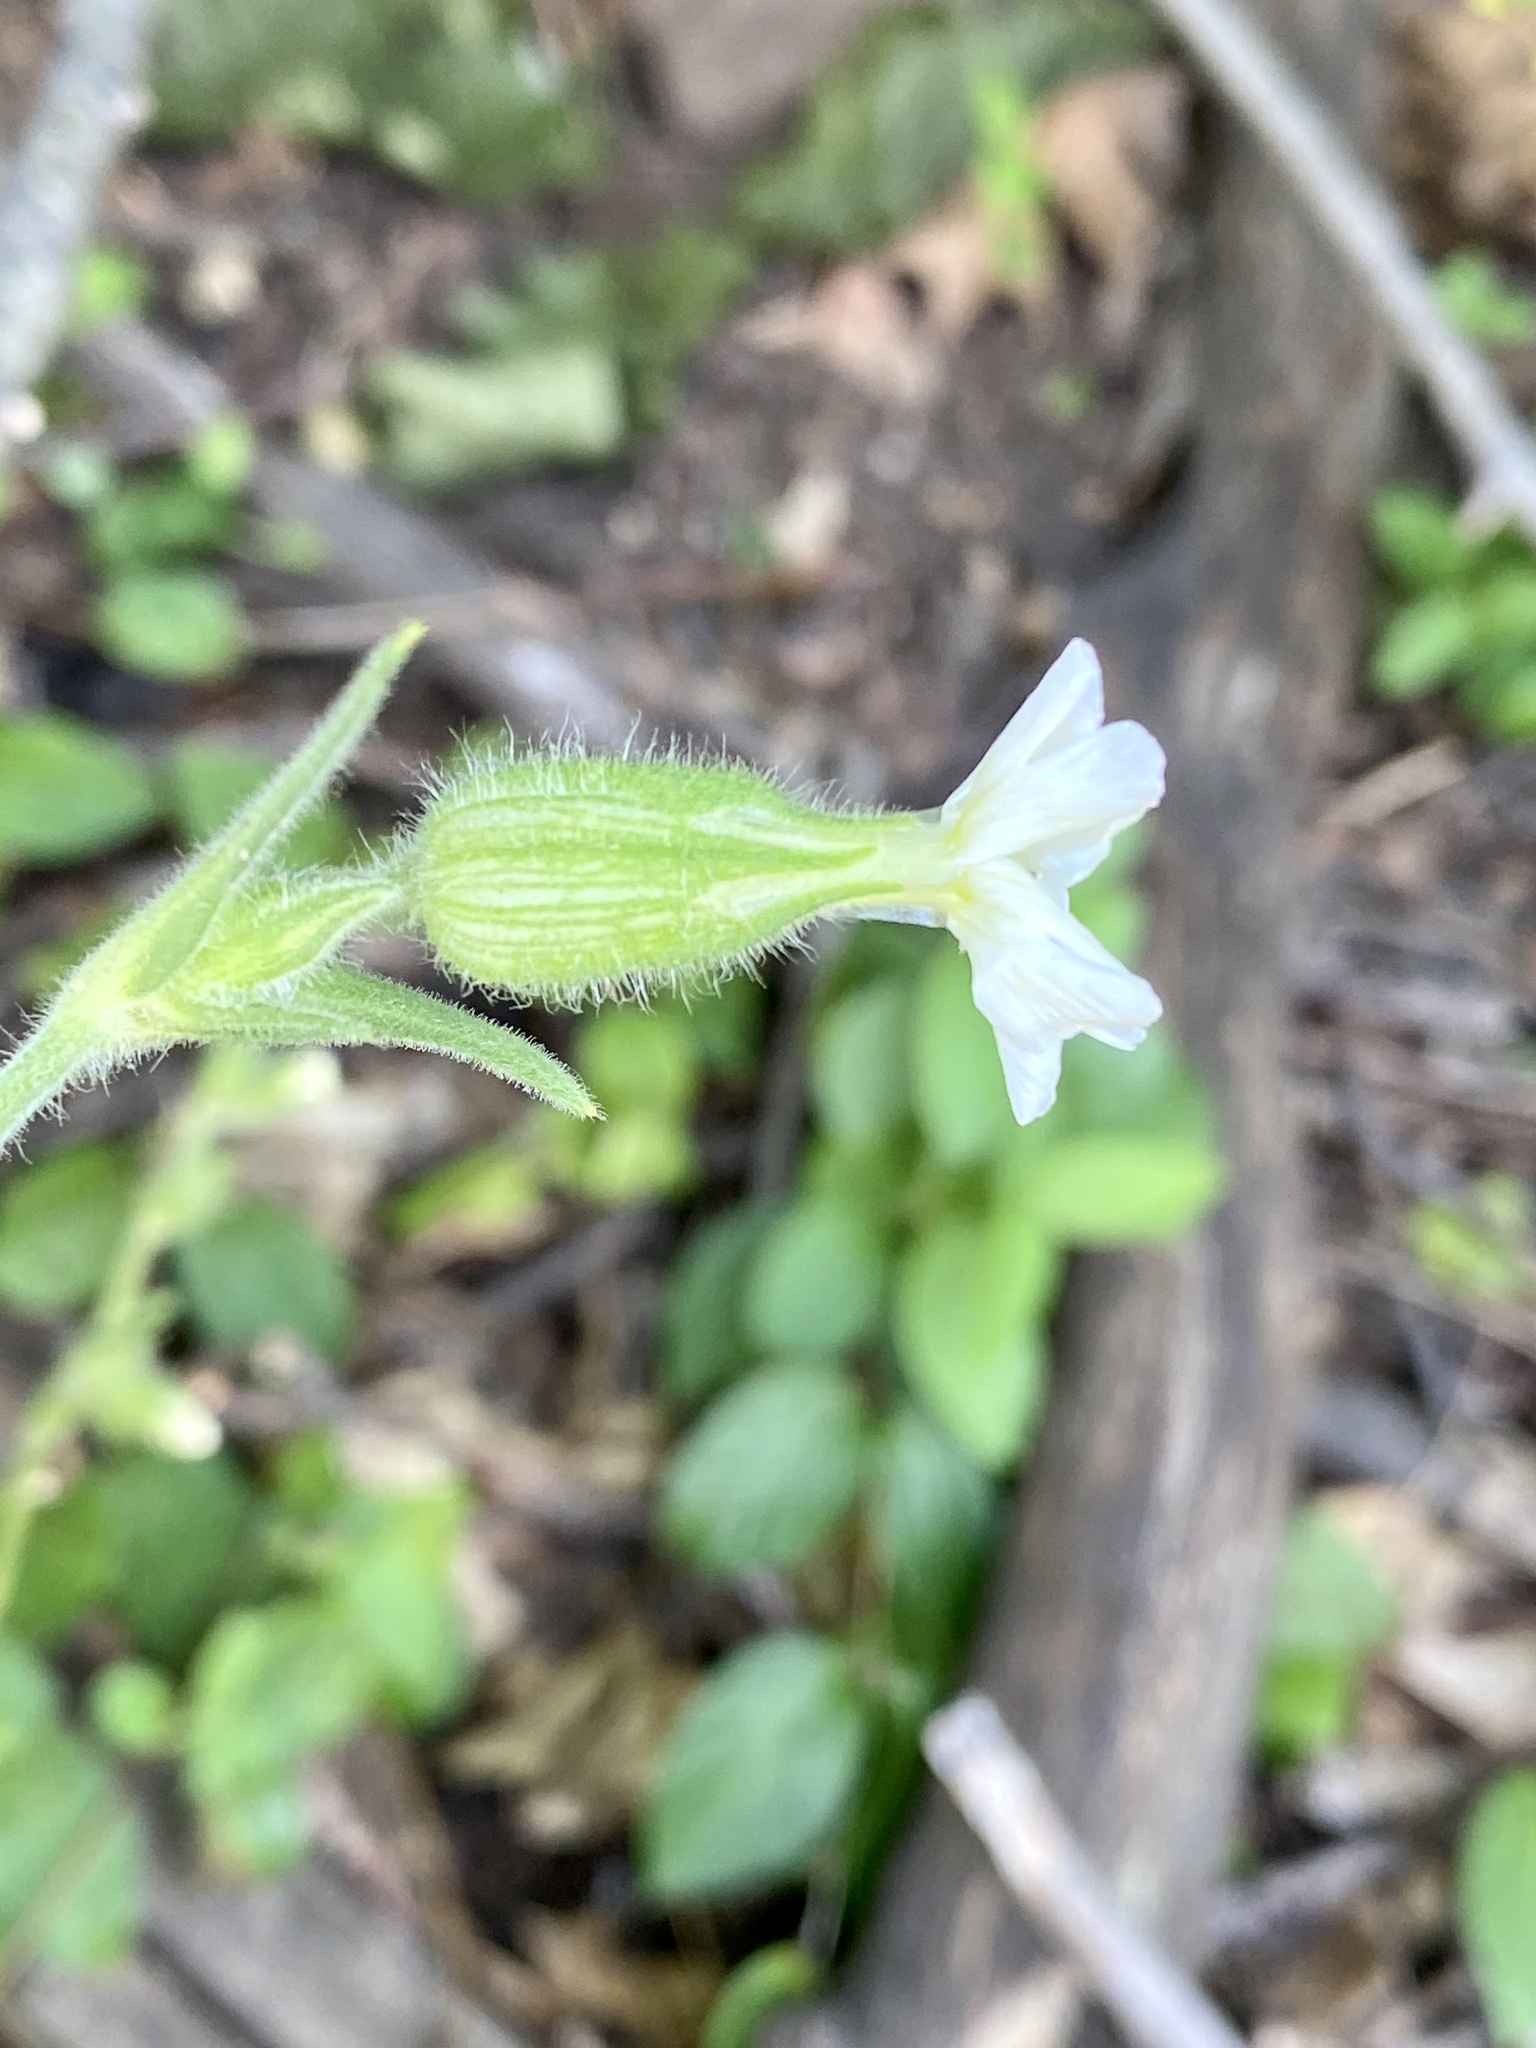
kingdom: Plantae
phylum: Tracheophyta
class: Magnoliopsida
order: Caryophyllales
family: Caryophyllaceae
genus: Silene
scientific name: Silene latifolia
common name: White campion
